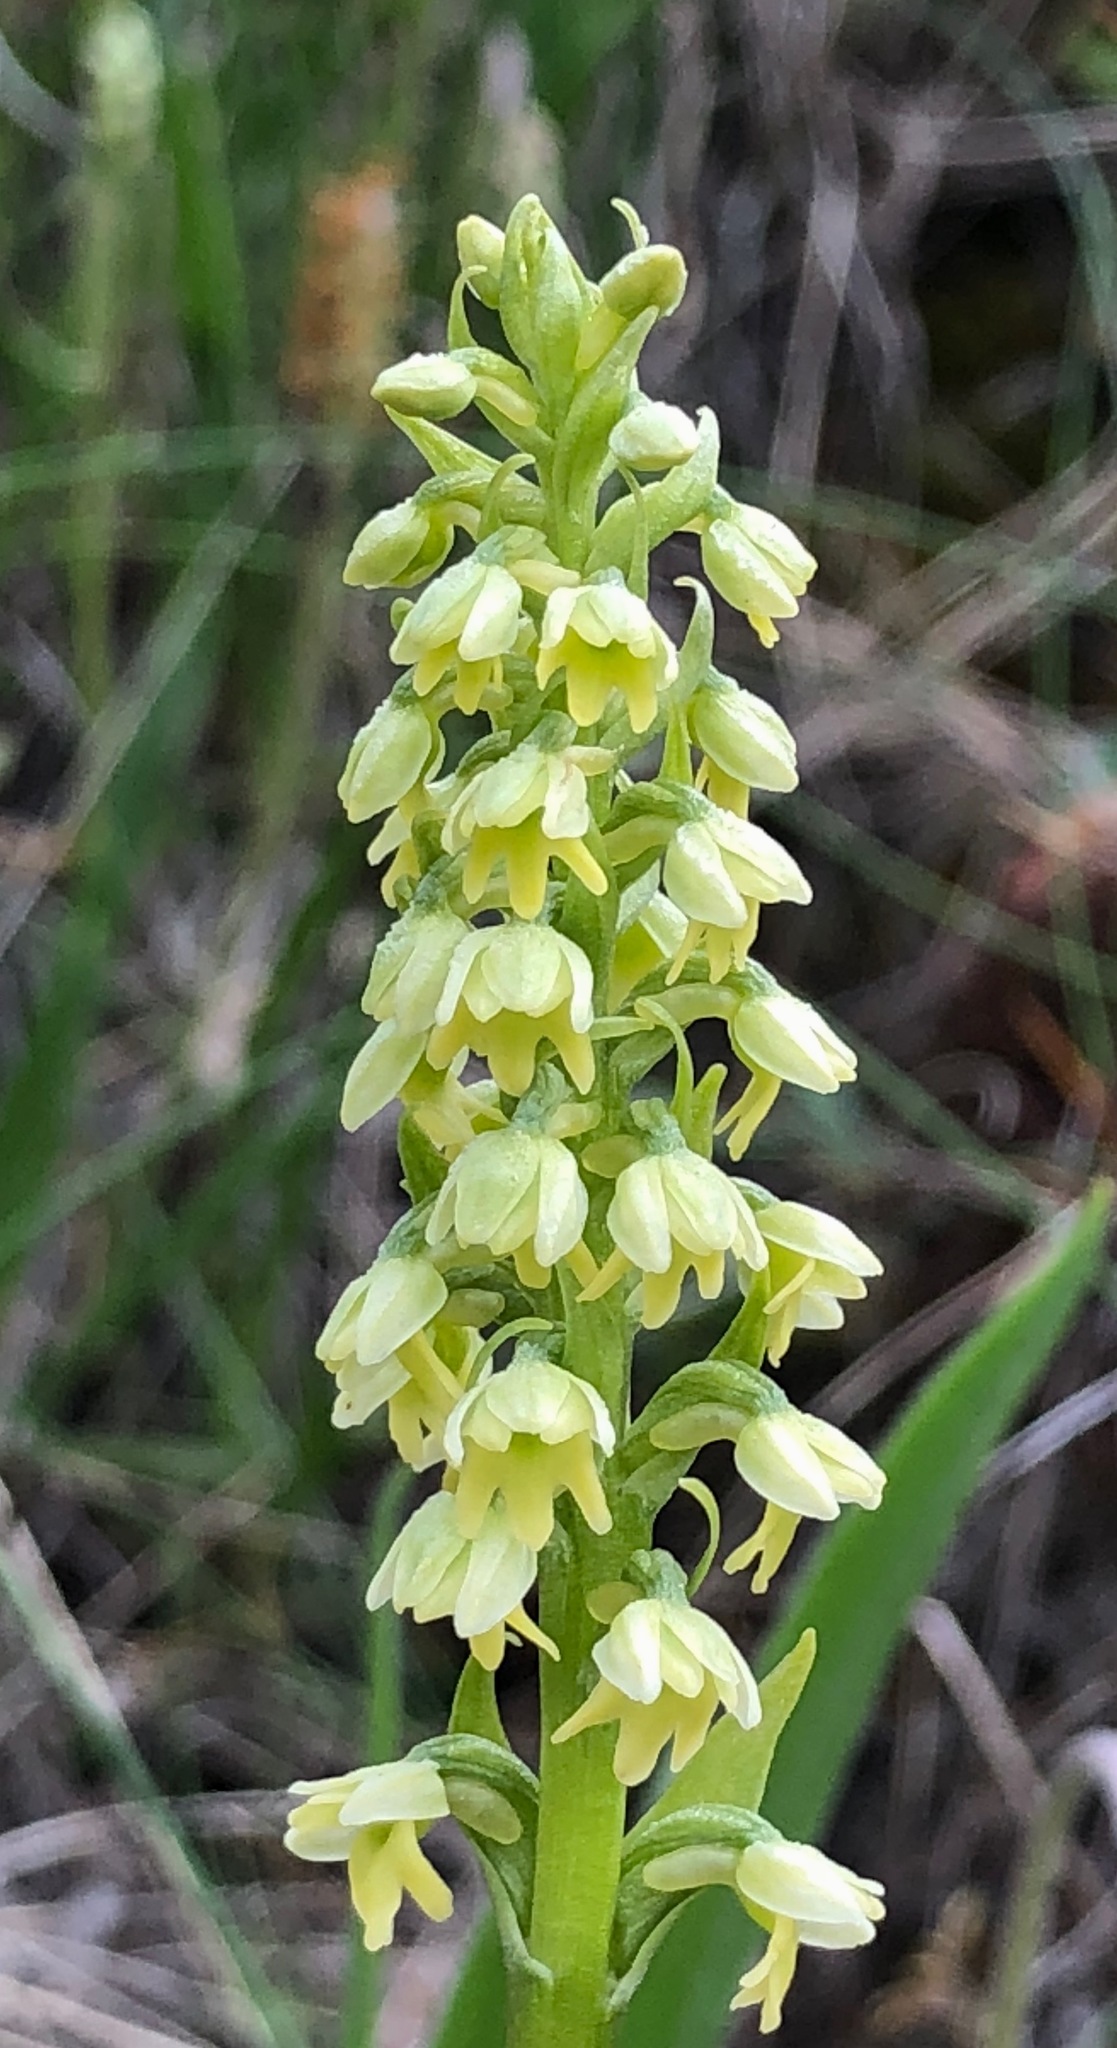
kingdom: Plantae
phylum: Tracheophyta
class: Liliopsida
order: Asparagales
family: Orchidaceae
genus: Pseudorchis
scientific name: Pseudorchis albida
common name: Small-white orchid
